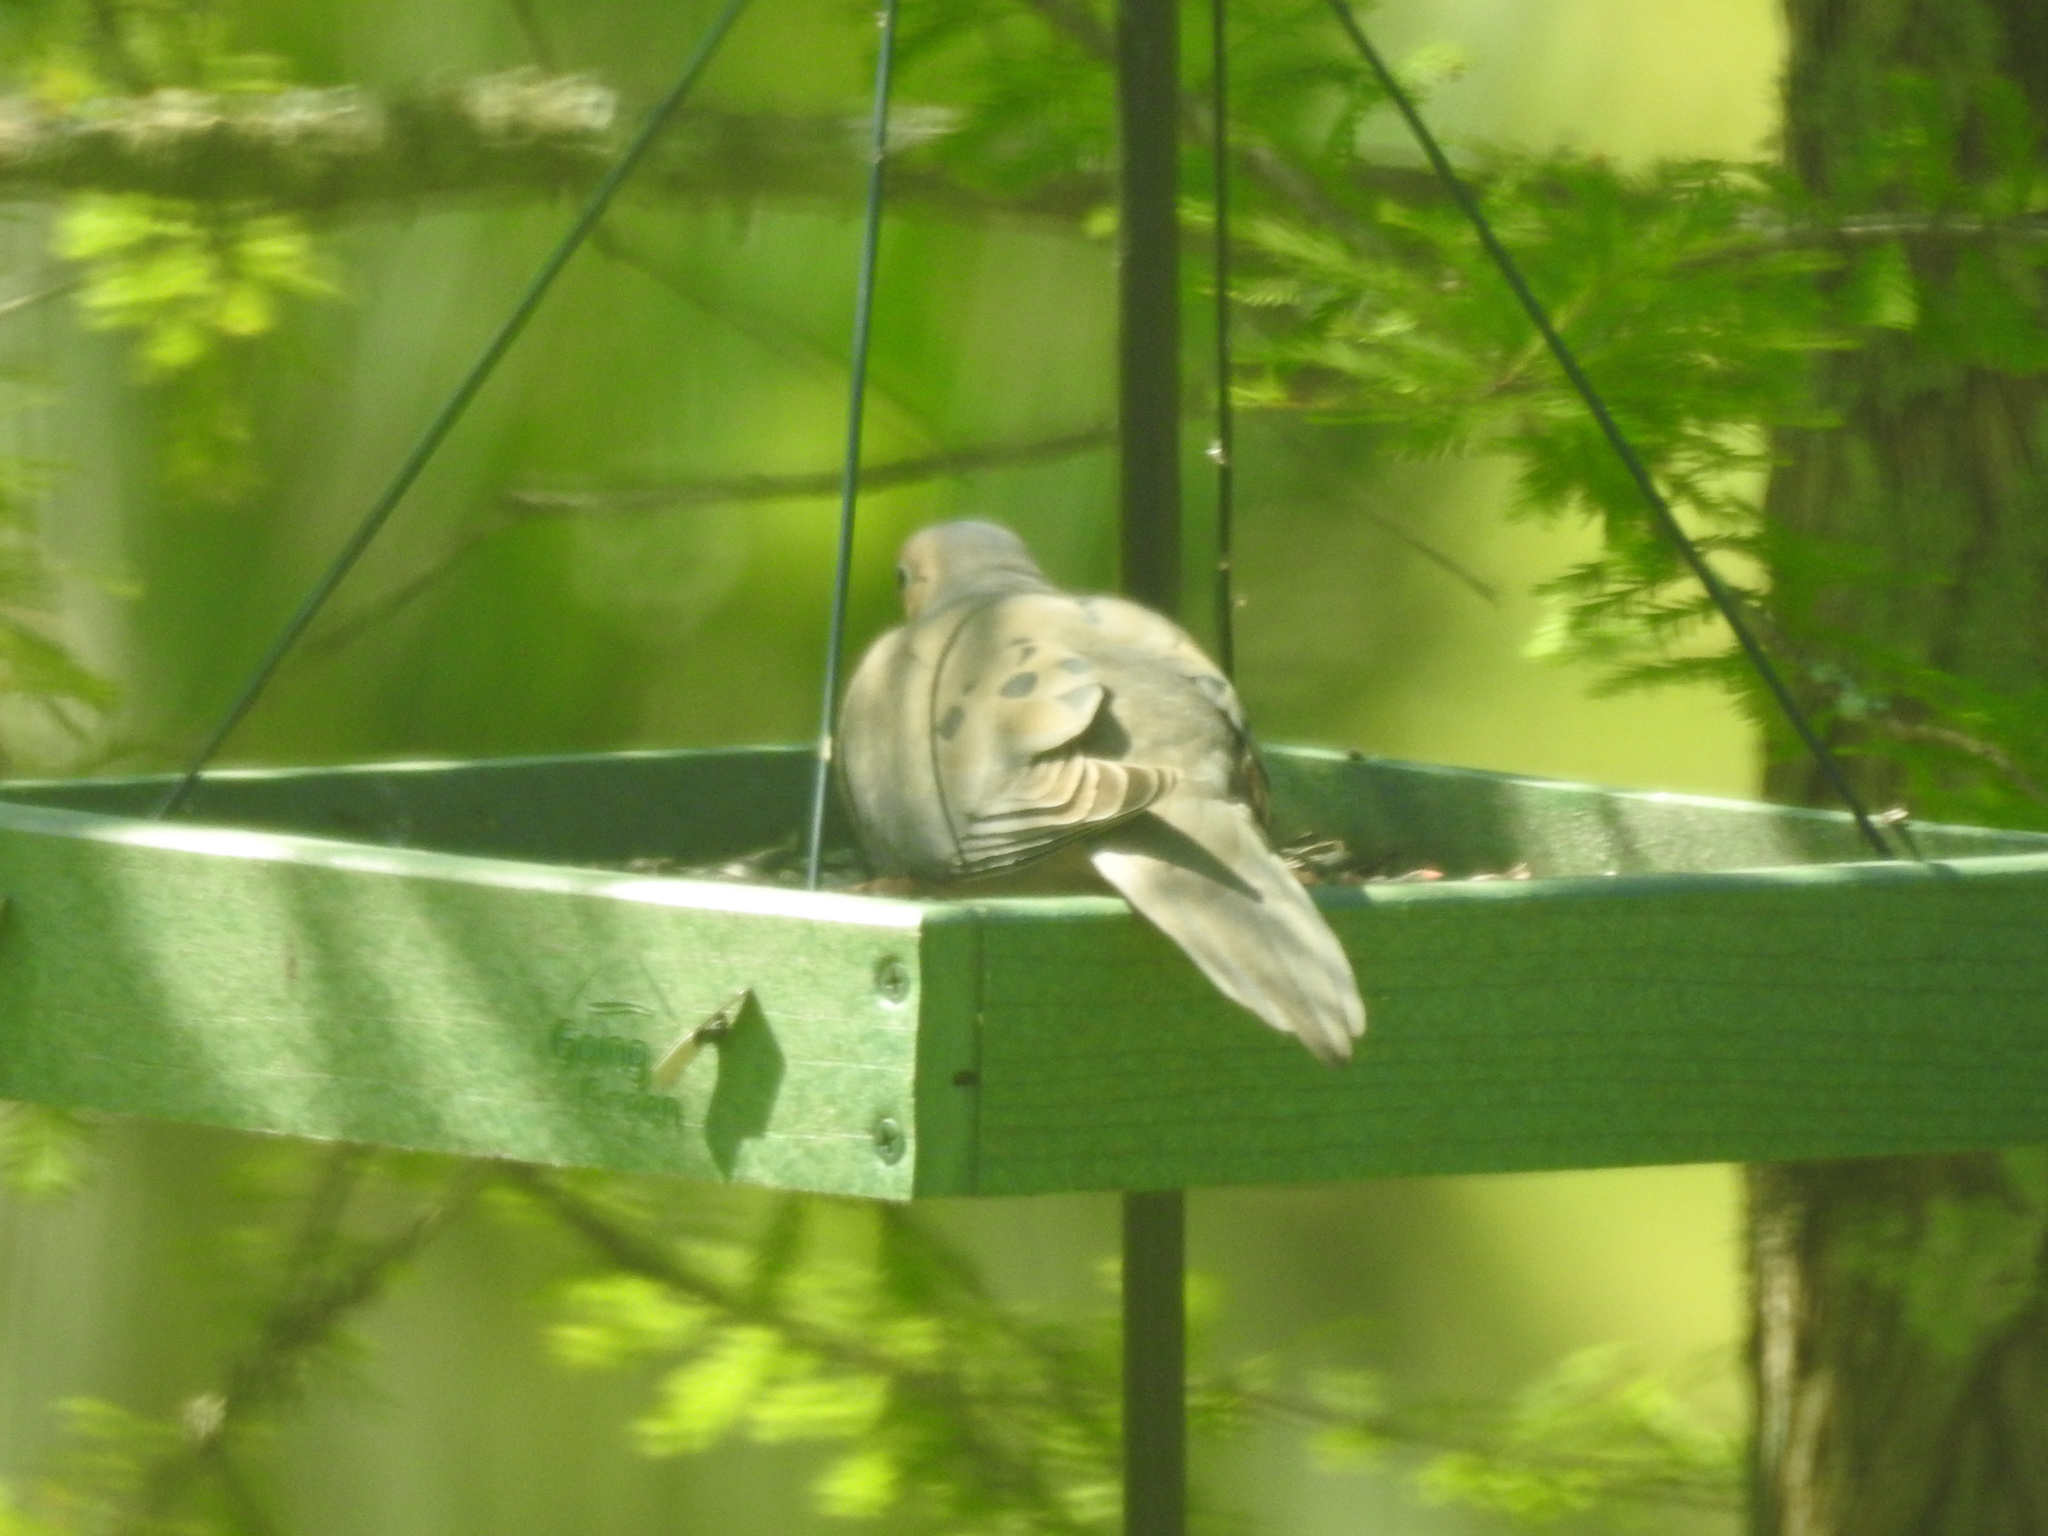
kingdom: Animalia
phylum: Chordata
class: Aves
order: Columbiformes
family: Columbidae
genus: Zenaida
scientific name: Zenaida macroura
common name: Mourning dove
